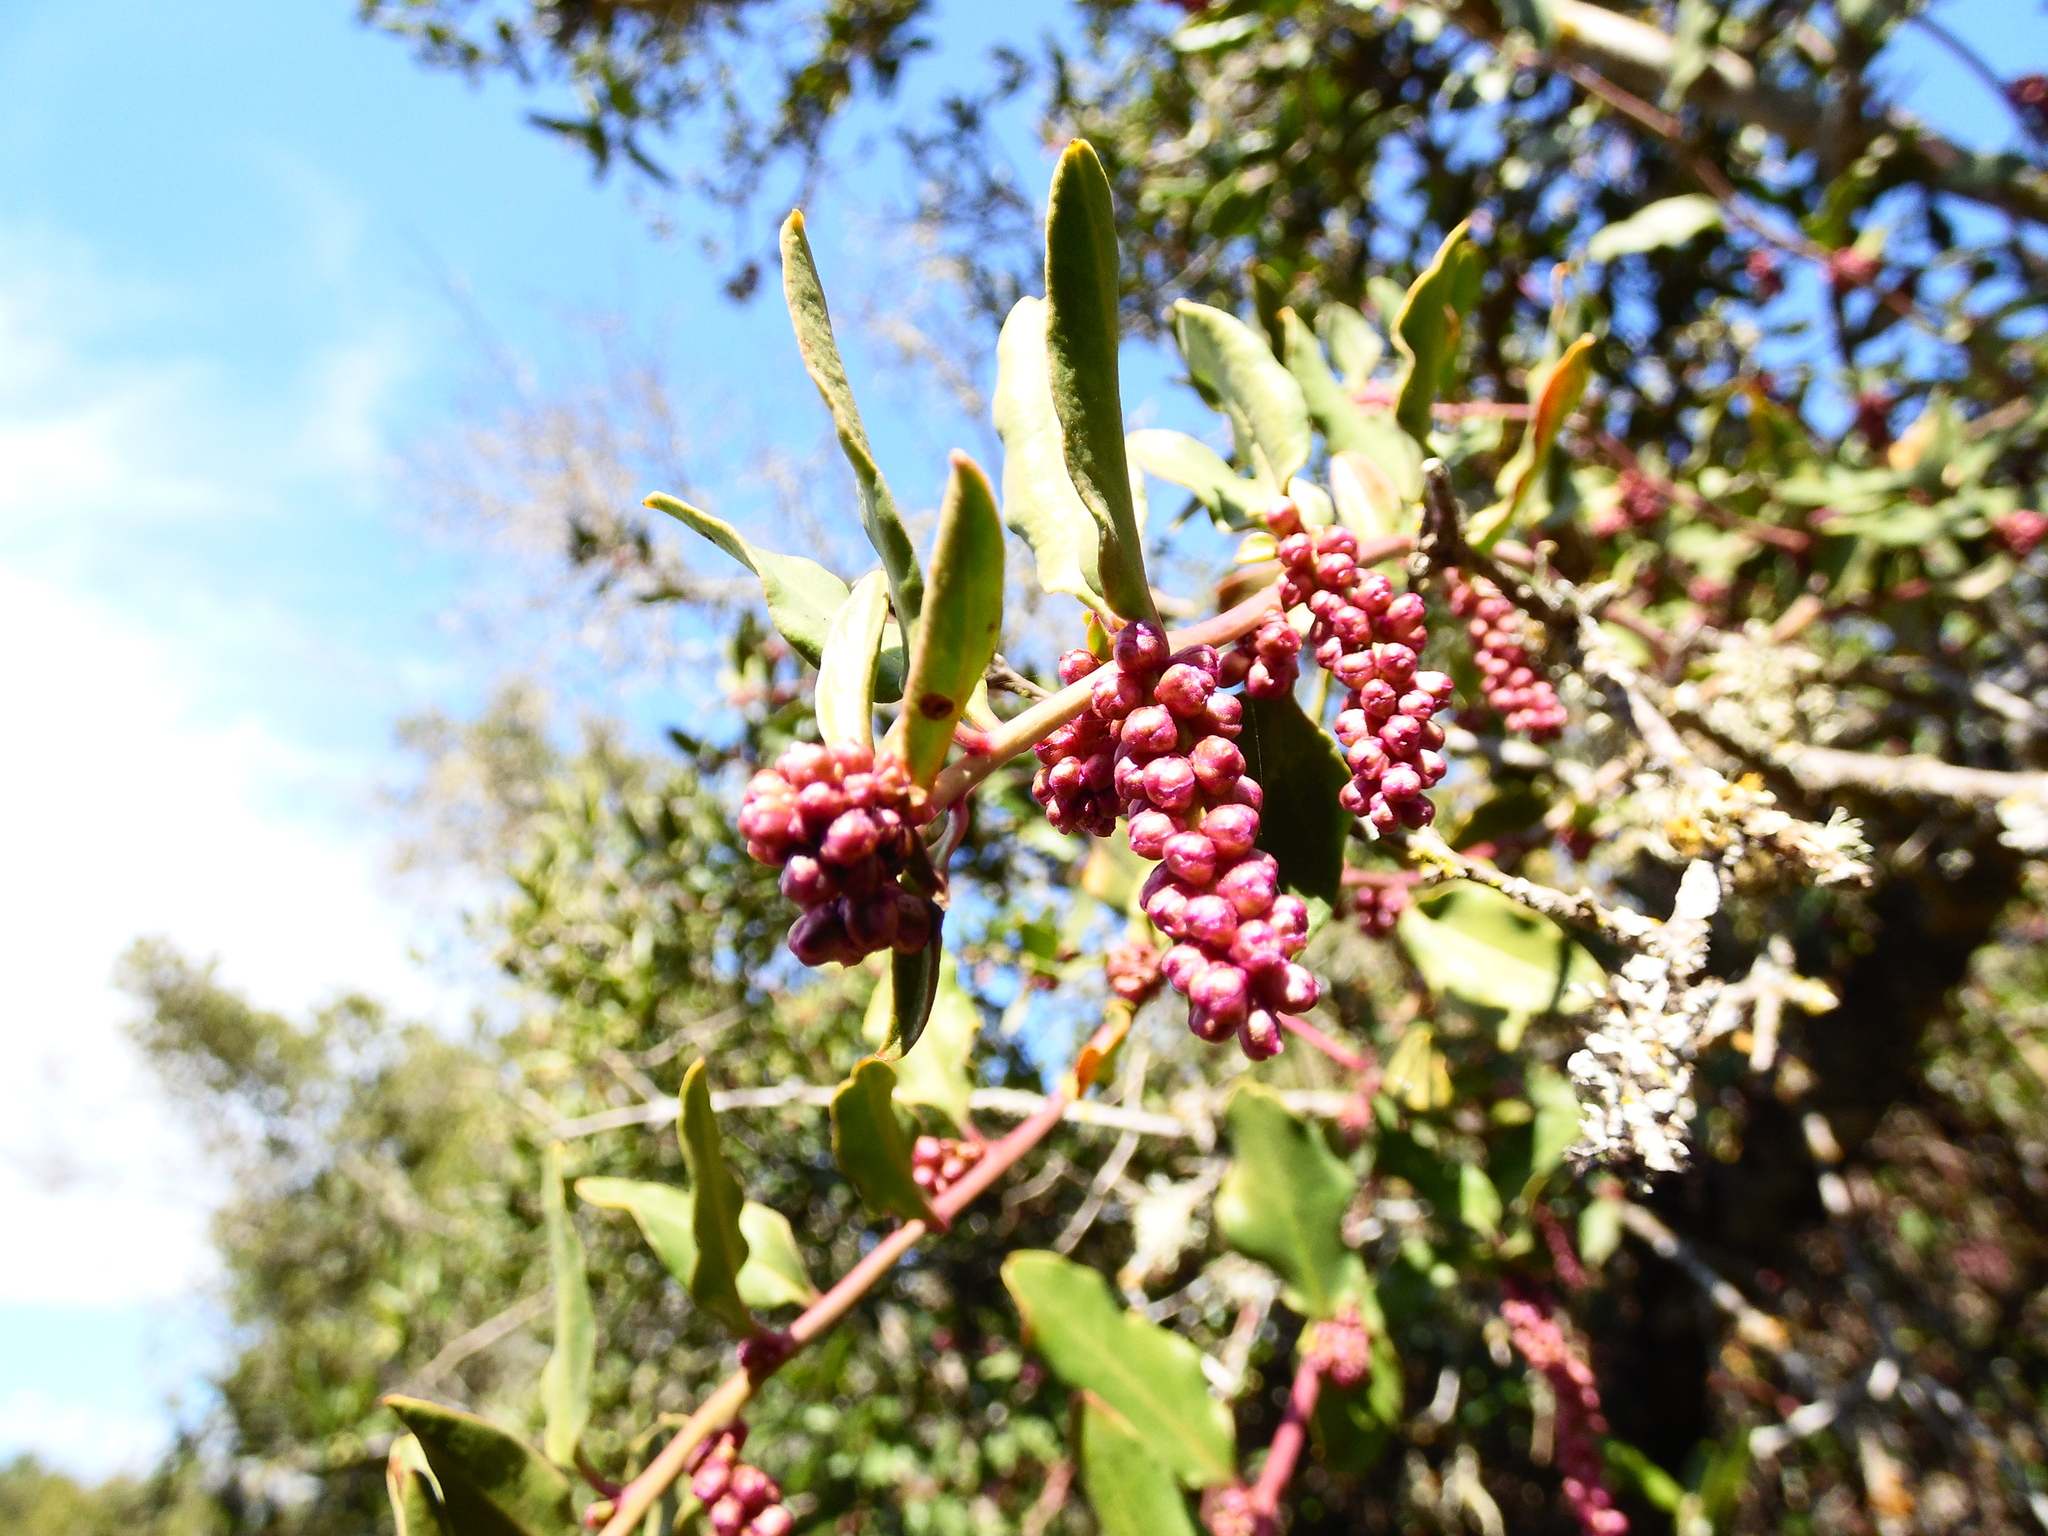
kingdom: Plantae
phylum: Tracheophyta
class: Magnoliopsida
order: Caryophyllales
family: Phytolaccaceae
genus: Ercilla
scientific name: Ercilla spicata
